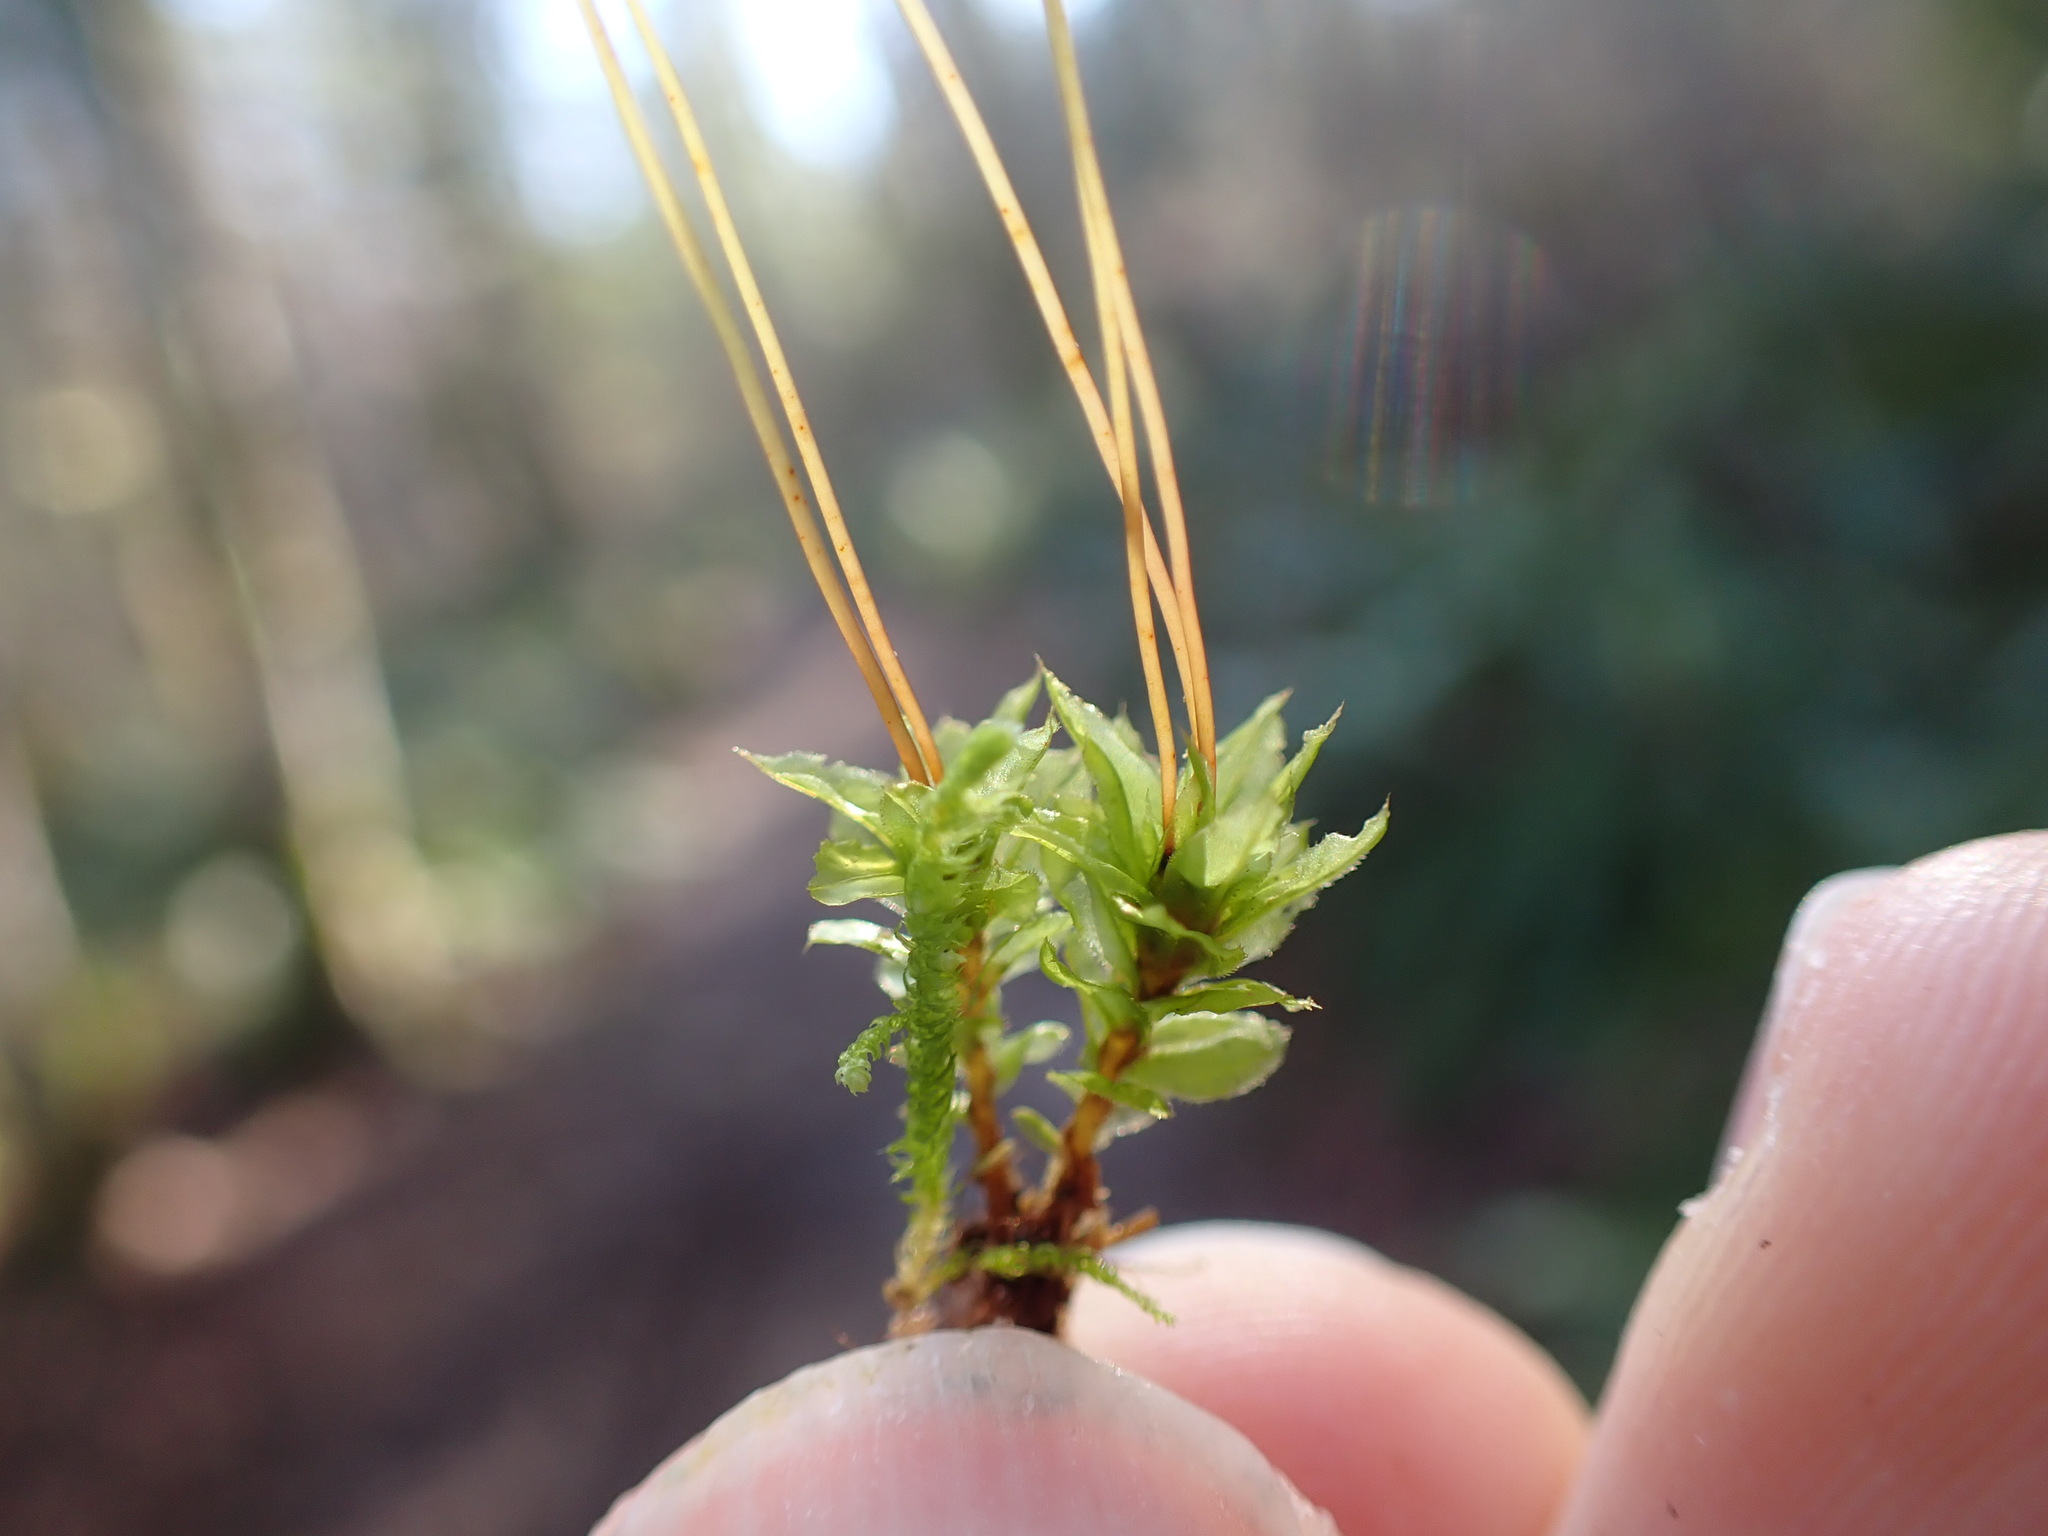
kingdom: Plantae
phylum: Bryophyta
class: Bryopsida
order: Bryales
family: Mniaceae
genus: Plagiomnium
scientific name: Plagiomnium venustum
